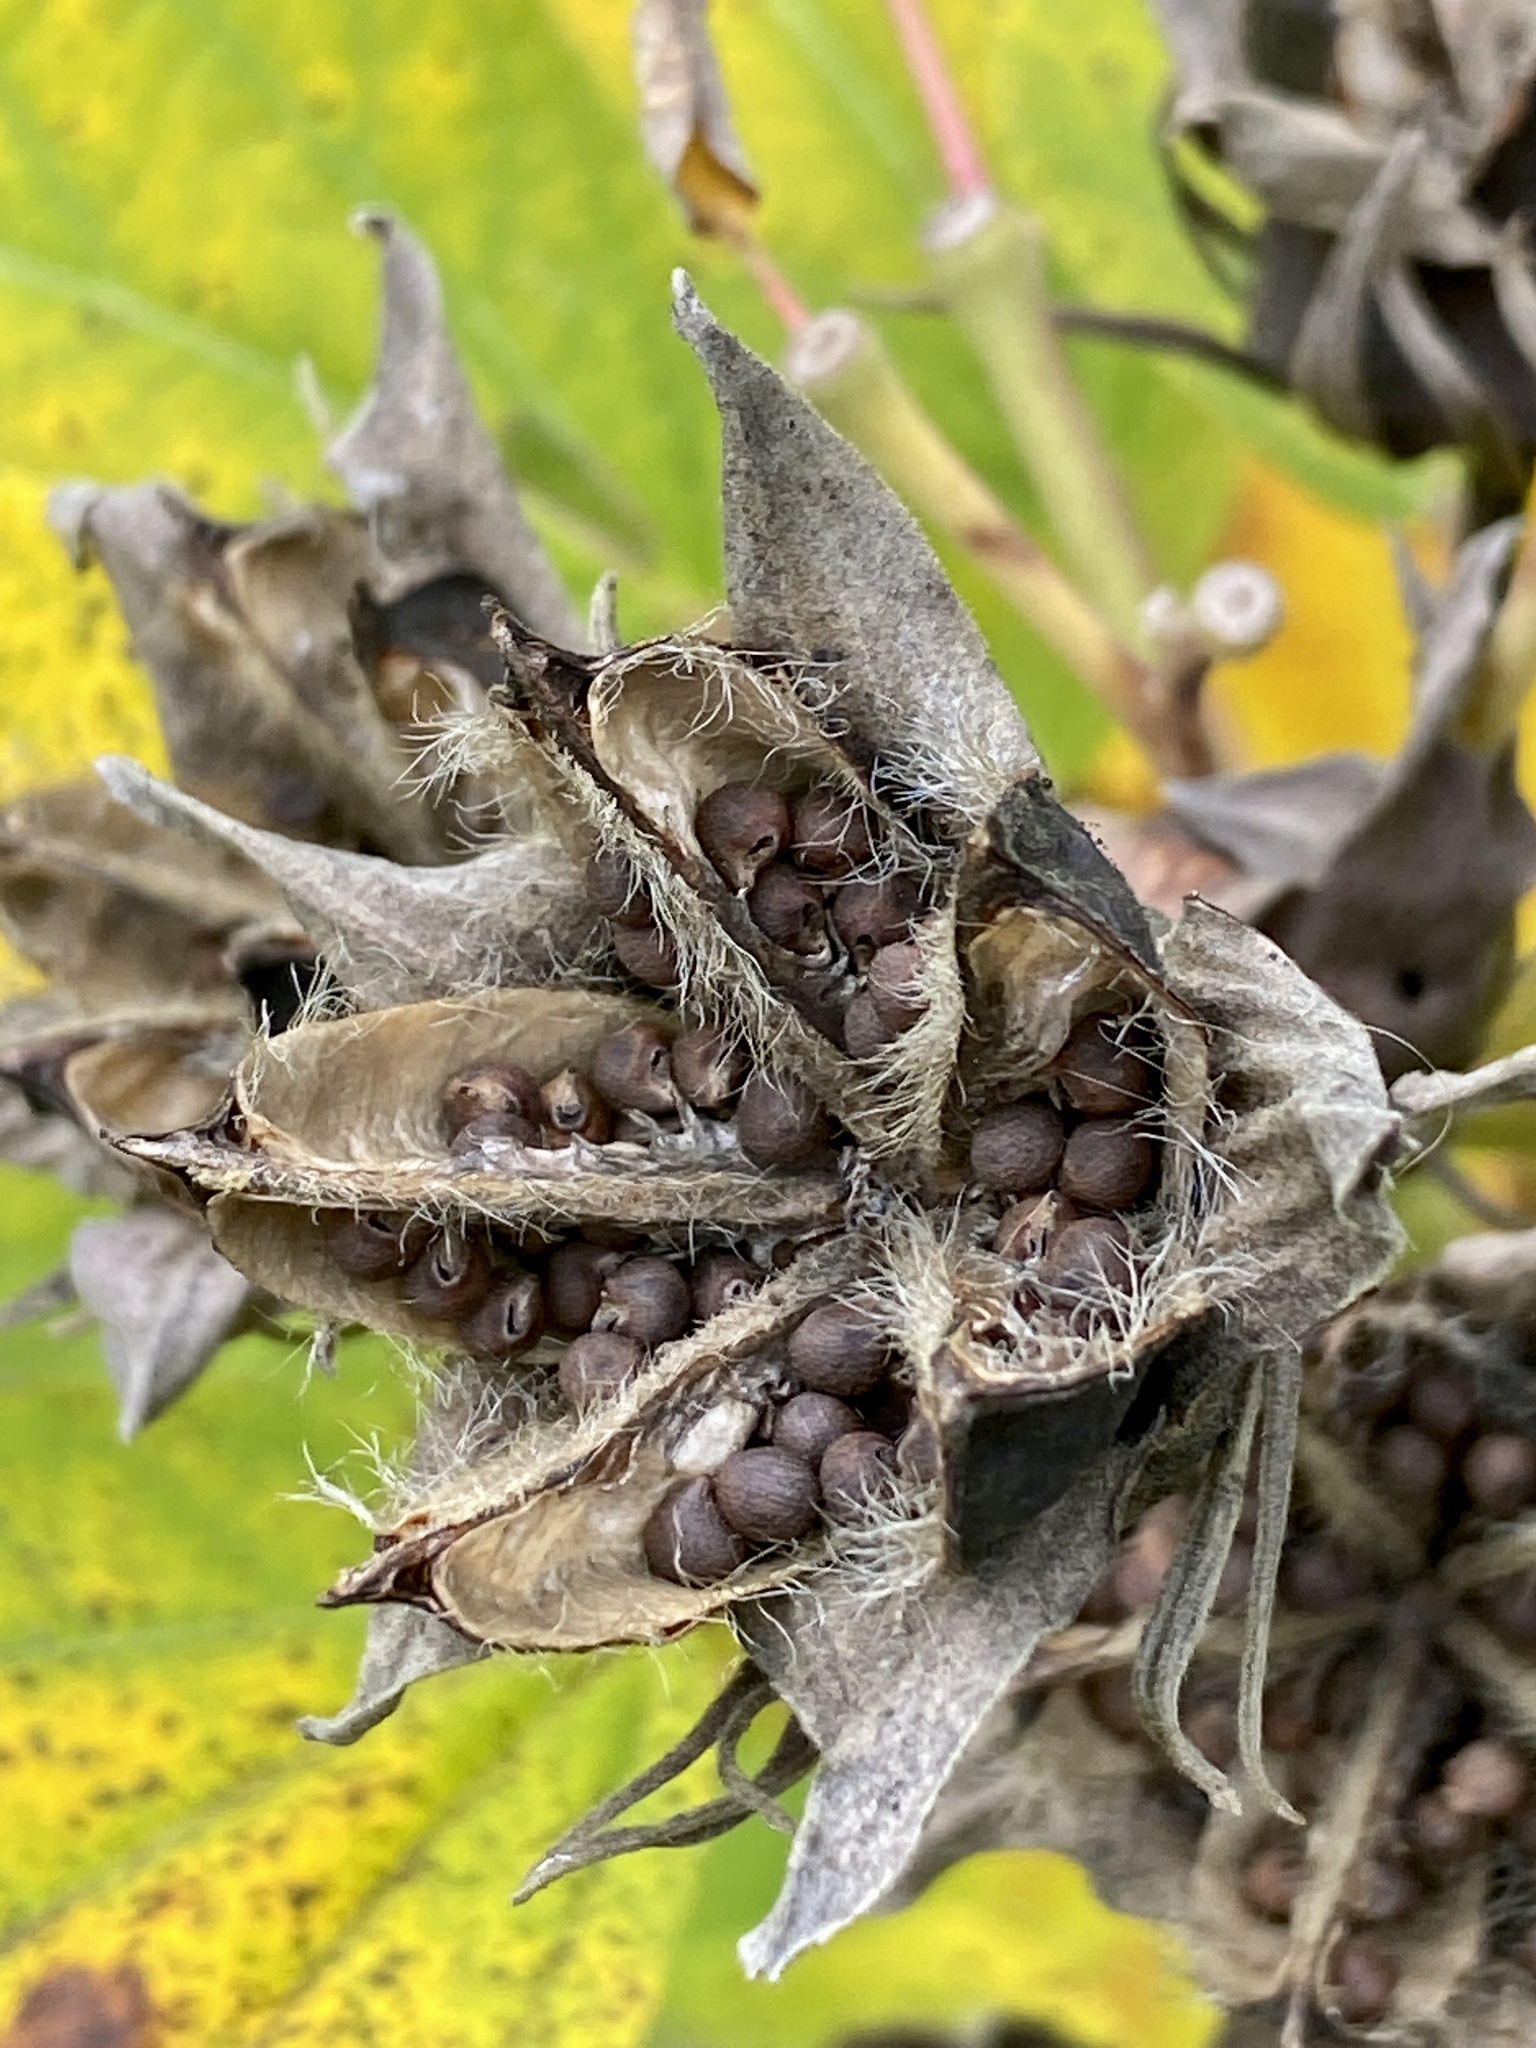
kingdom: Plantae
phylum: Tracheophyta
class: Magnoliopsida
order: Malvales
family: Malvaceae
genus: Hibiscus
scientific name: Hibiscus moscheutos
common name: Common rose-mallow
